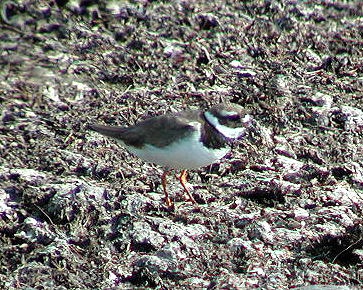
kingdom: Animalia
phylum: Chordata
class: Aves
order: Charadriiformes
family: Charadriidae
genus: Charadrius
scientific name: Charadrius hiaticula
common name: Common ringed plover
